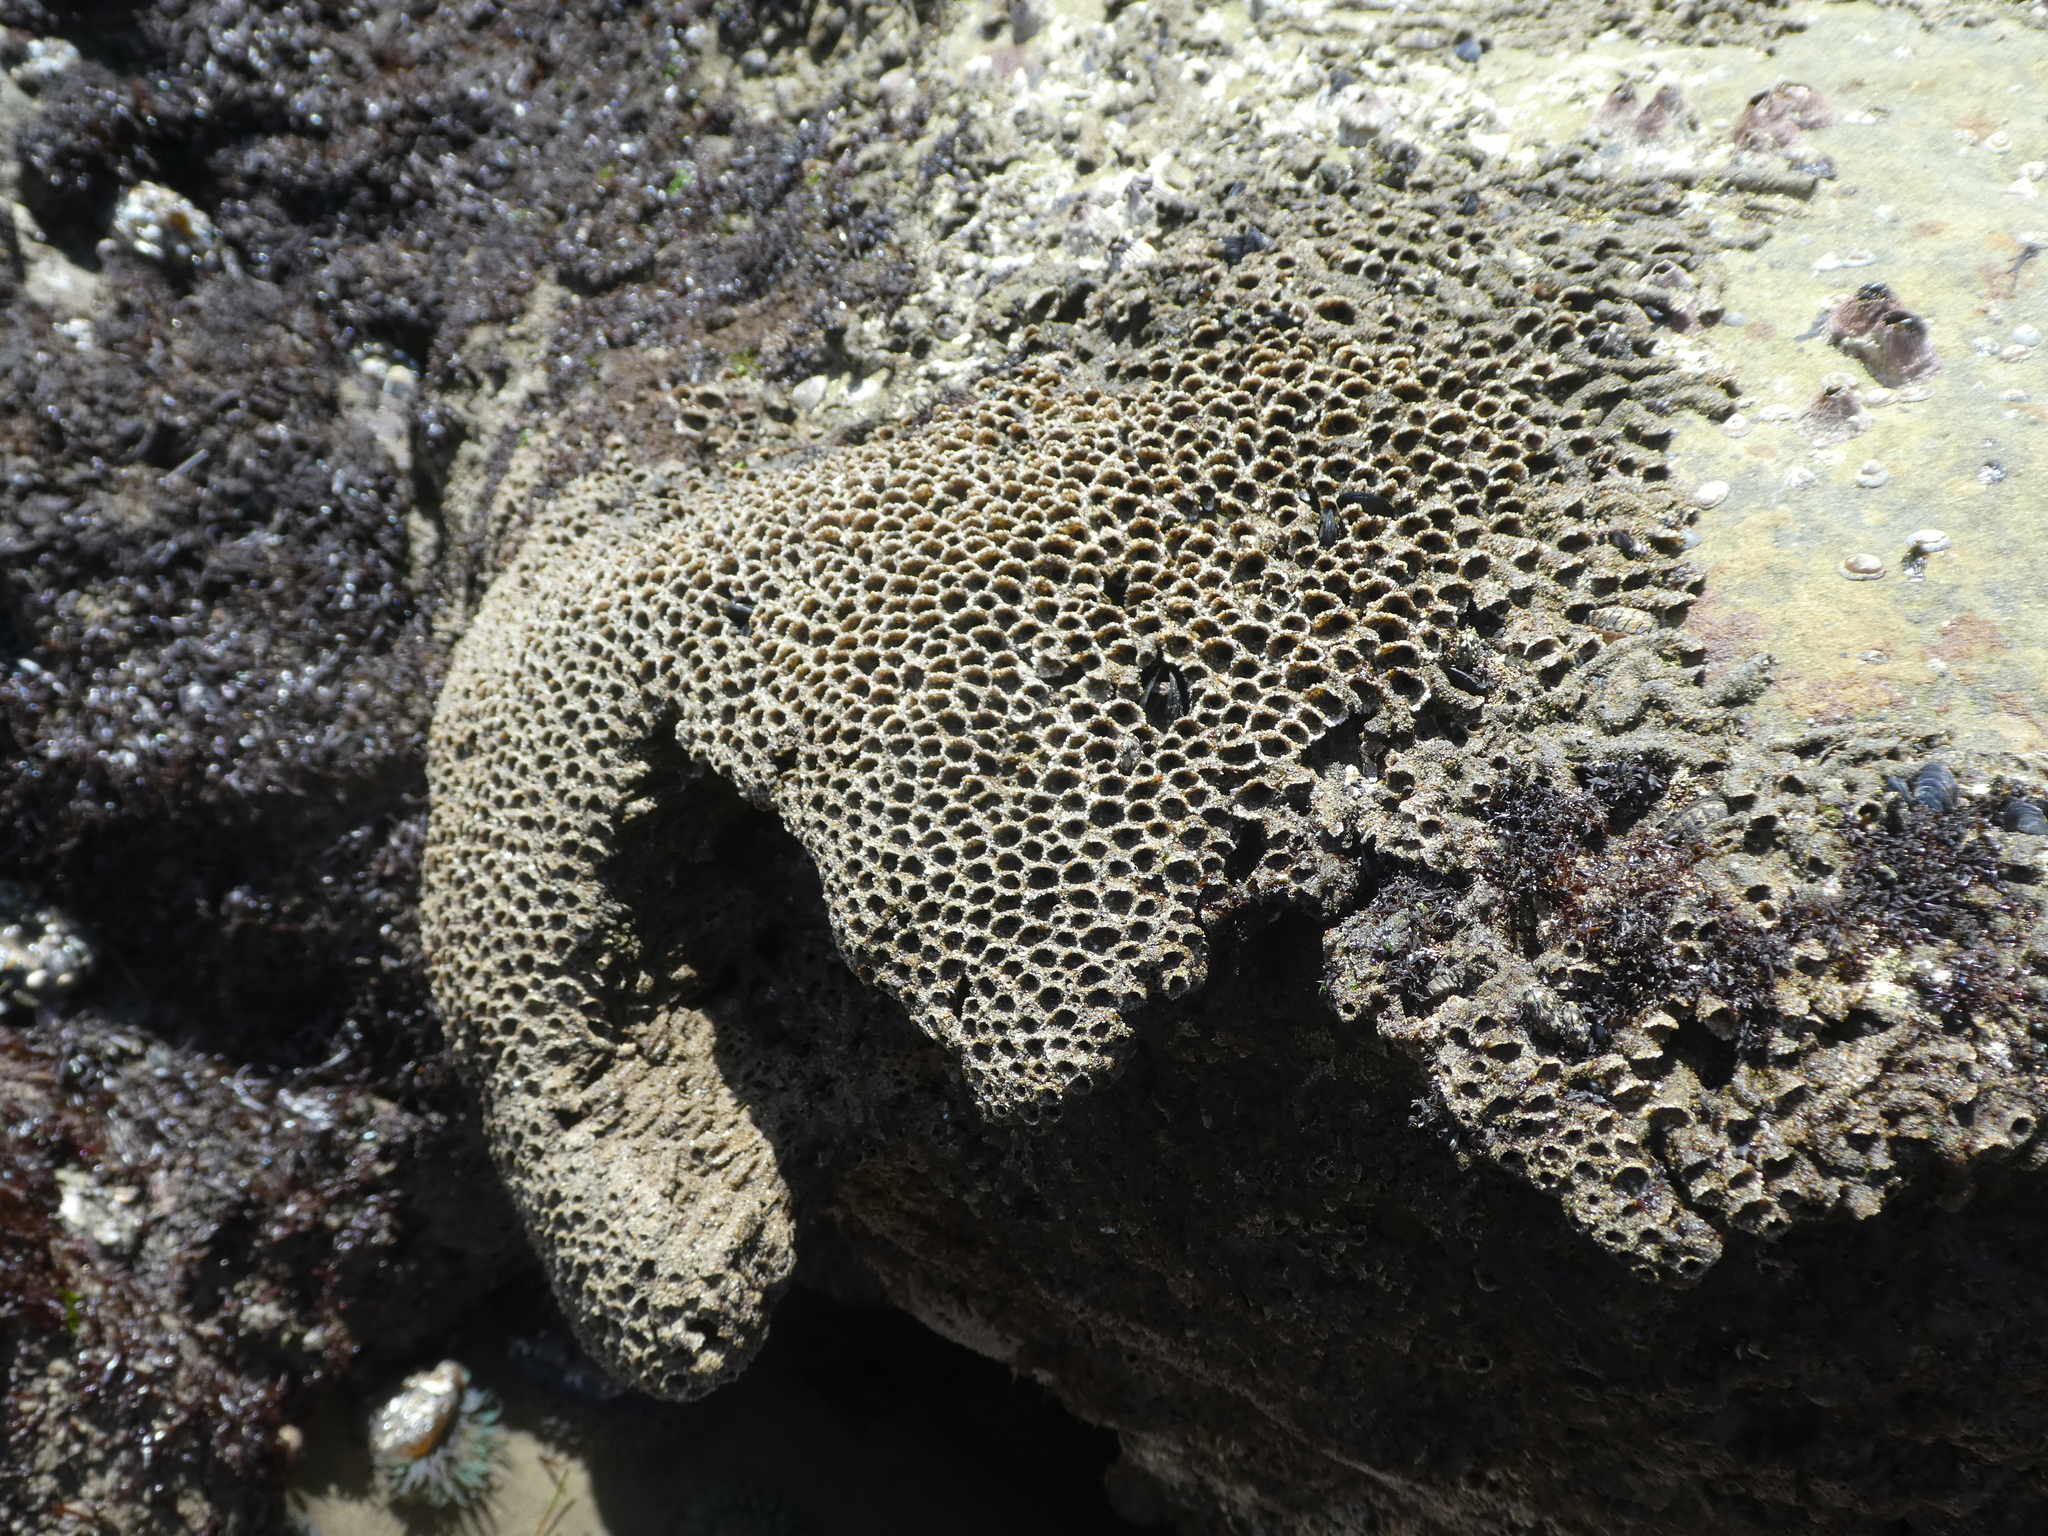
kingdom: Animalia
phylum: Annelida
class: Polychaeta
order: Sabellida
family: Sabellariidae
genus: Phragmatopoma
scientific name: Phragmatopoma californica
